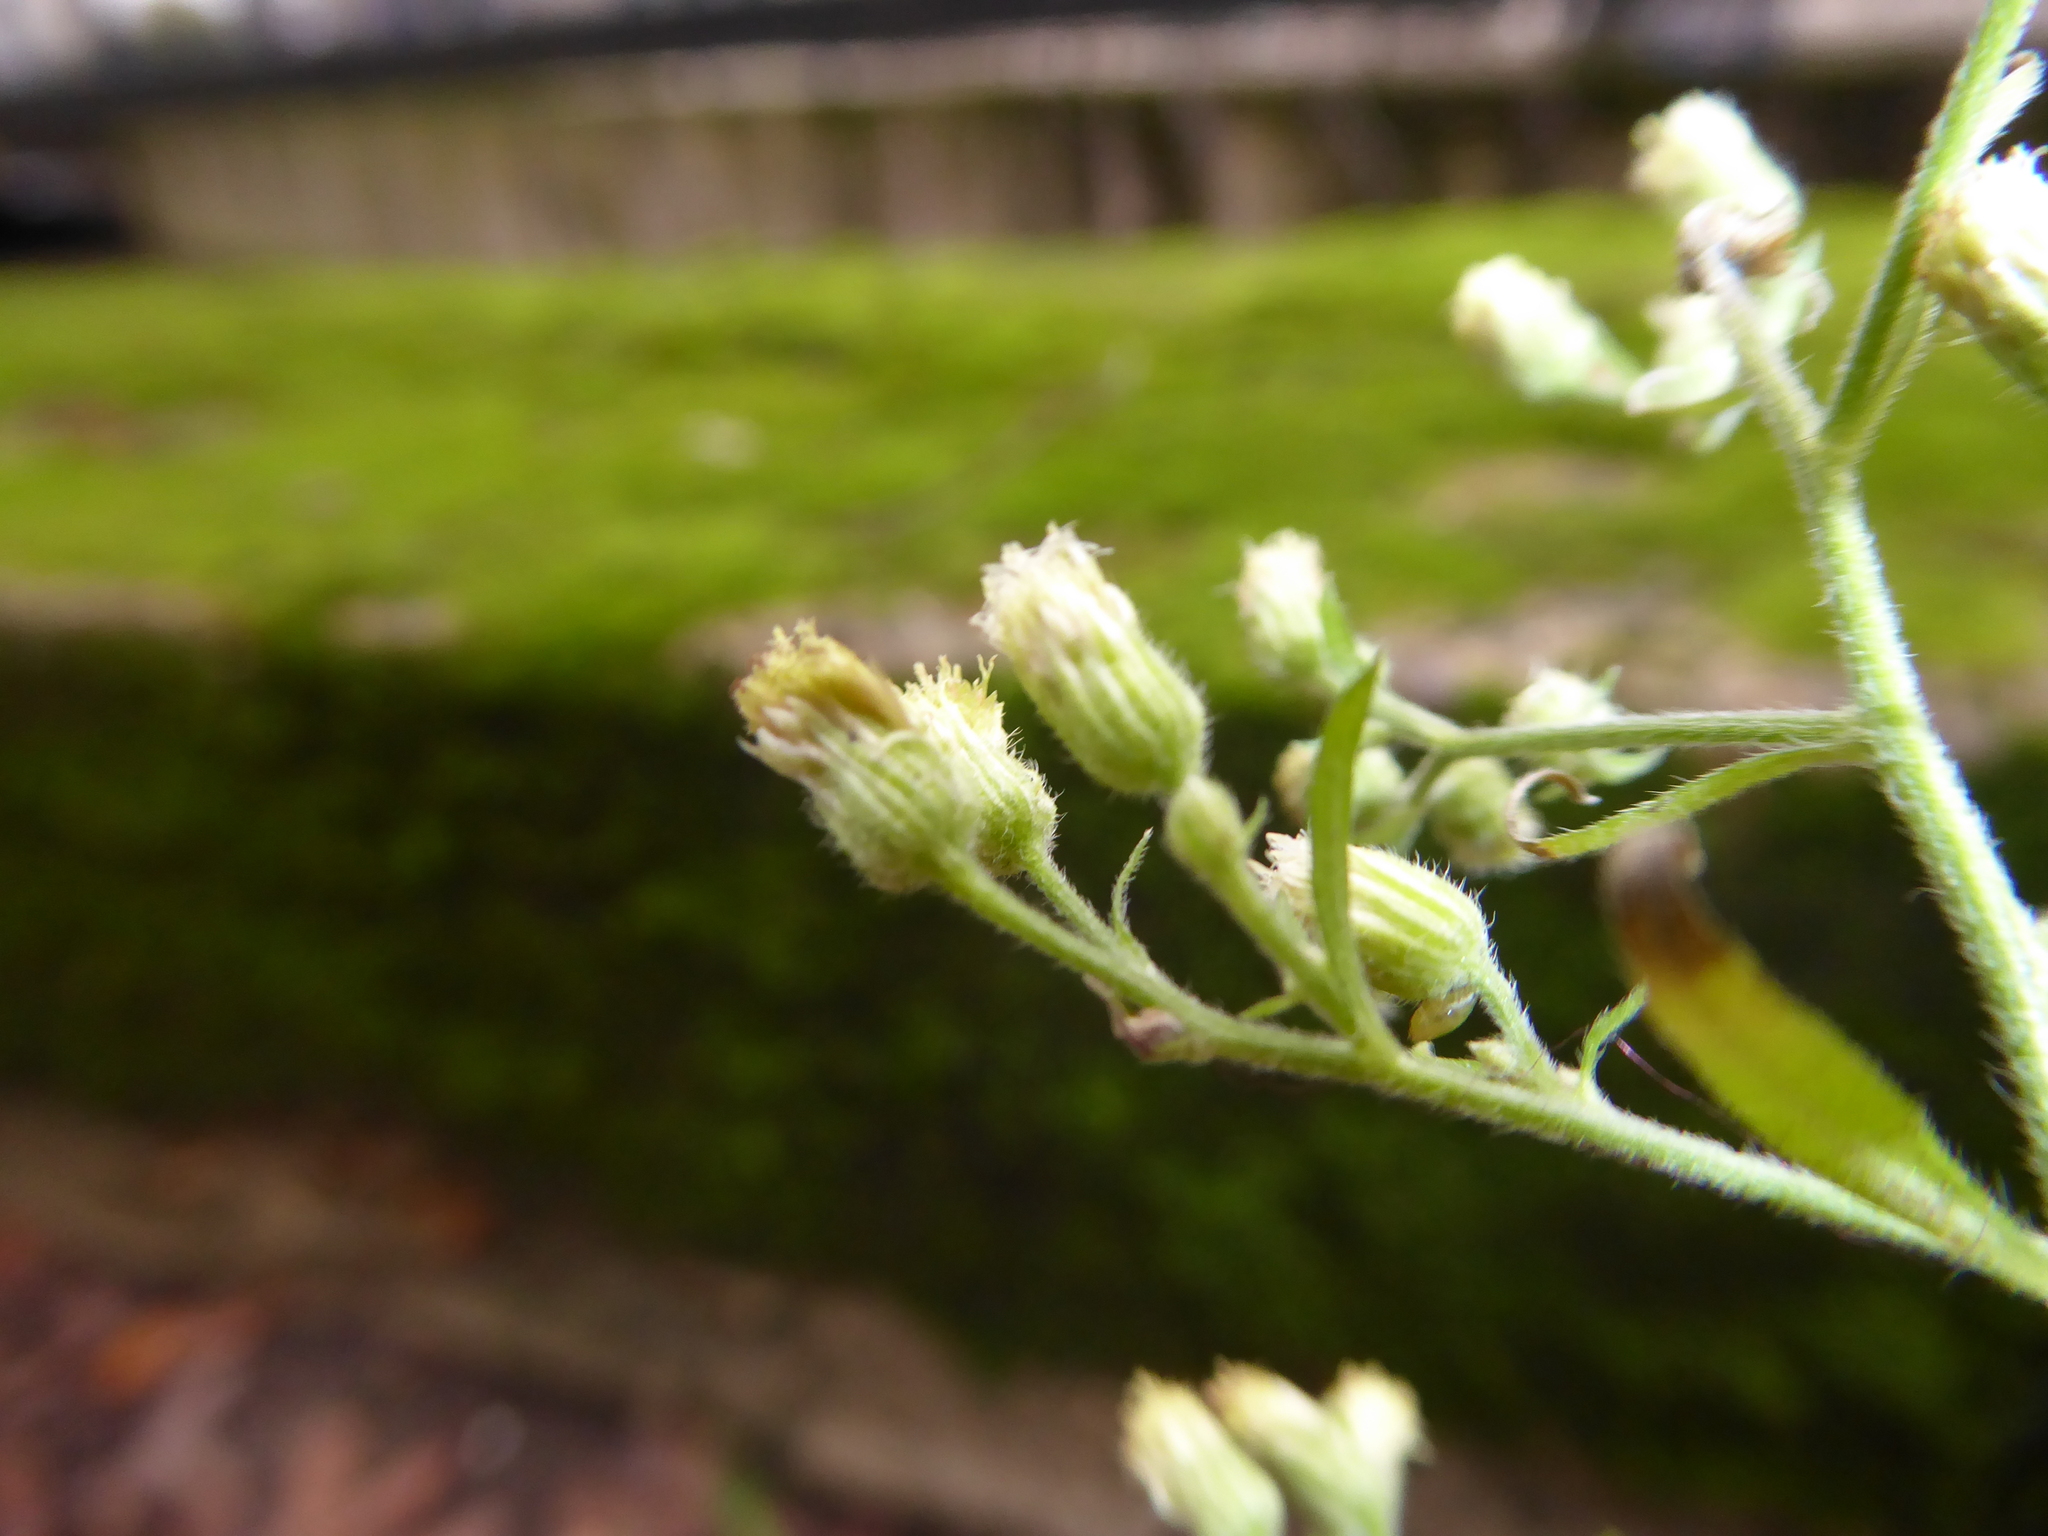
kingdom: Plantae
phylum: Tracheophyta
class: Magnoliopsida
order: Asterales
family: Asteraceae
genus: Erigeron
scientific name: Erigeron sumatrensis
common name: Daisy
